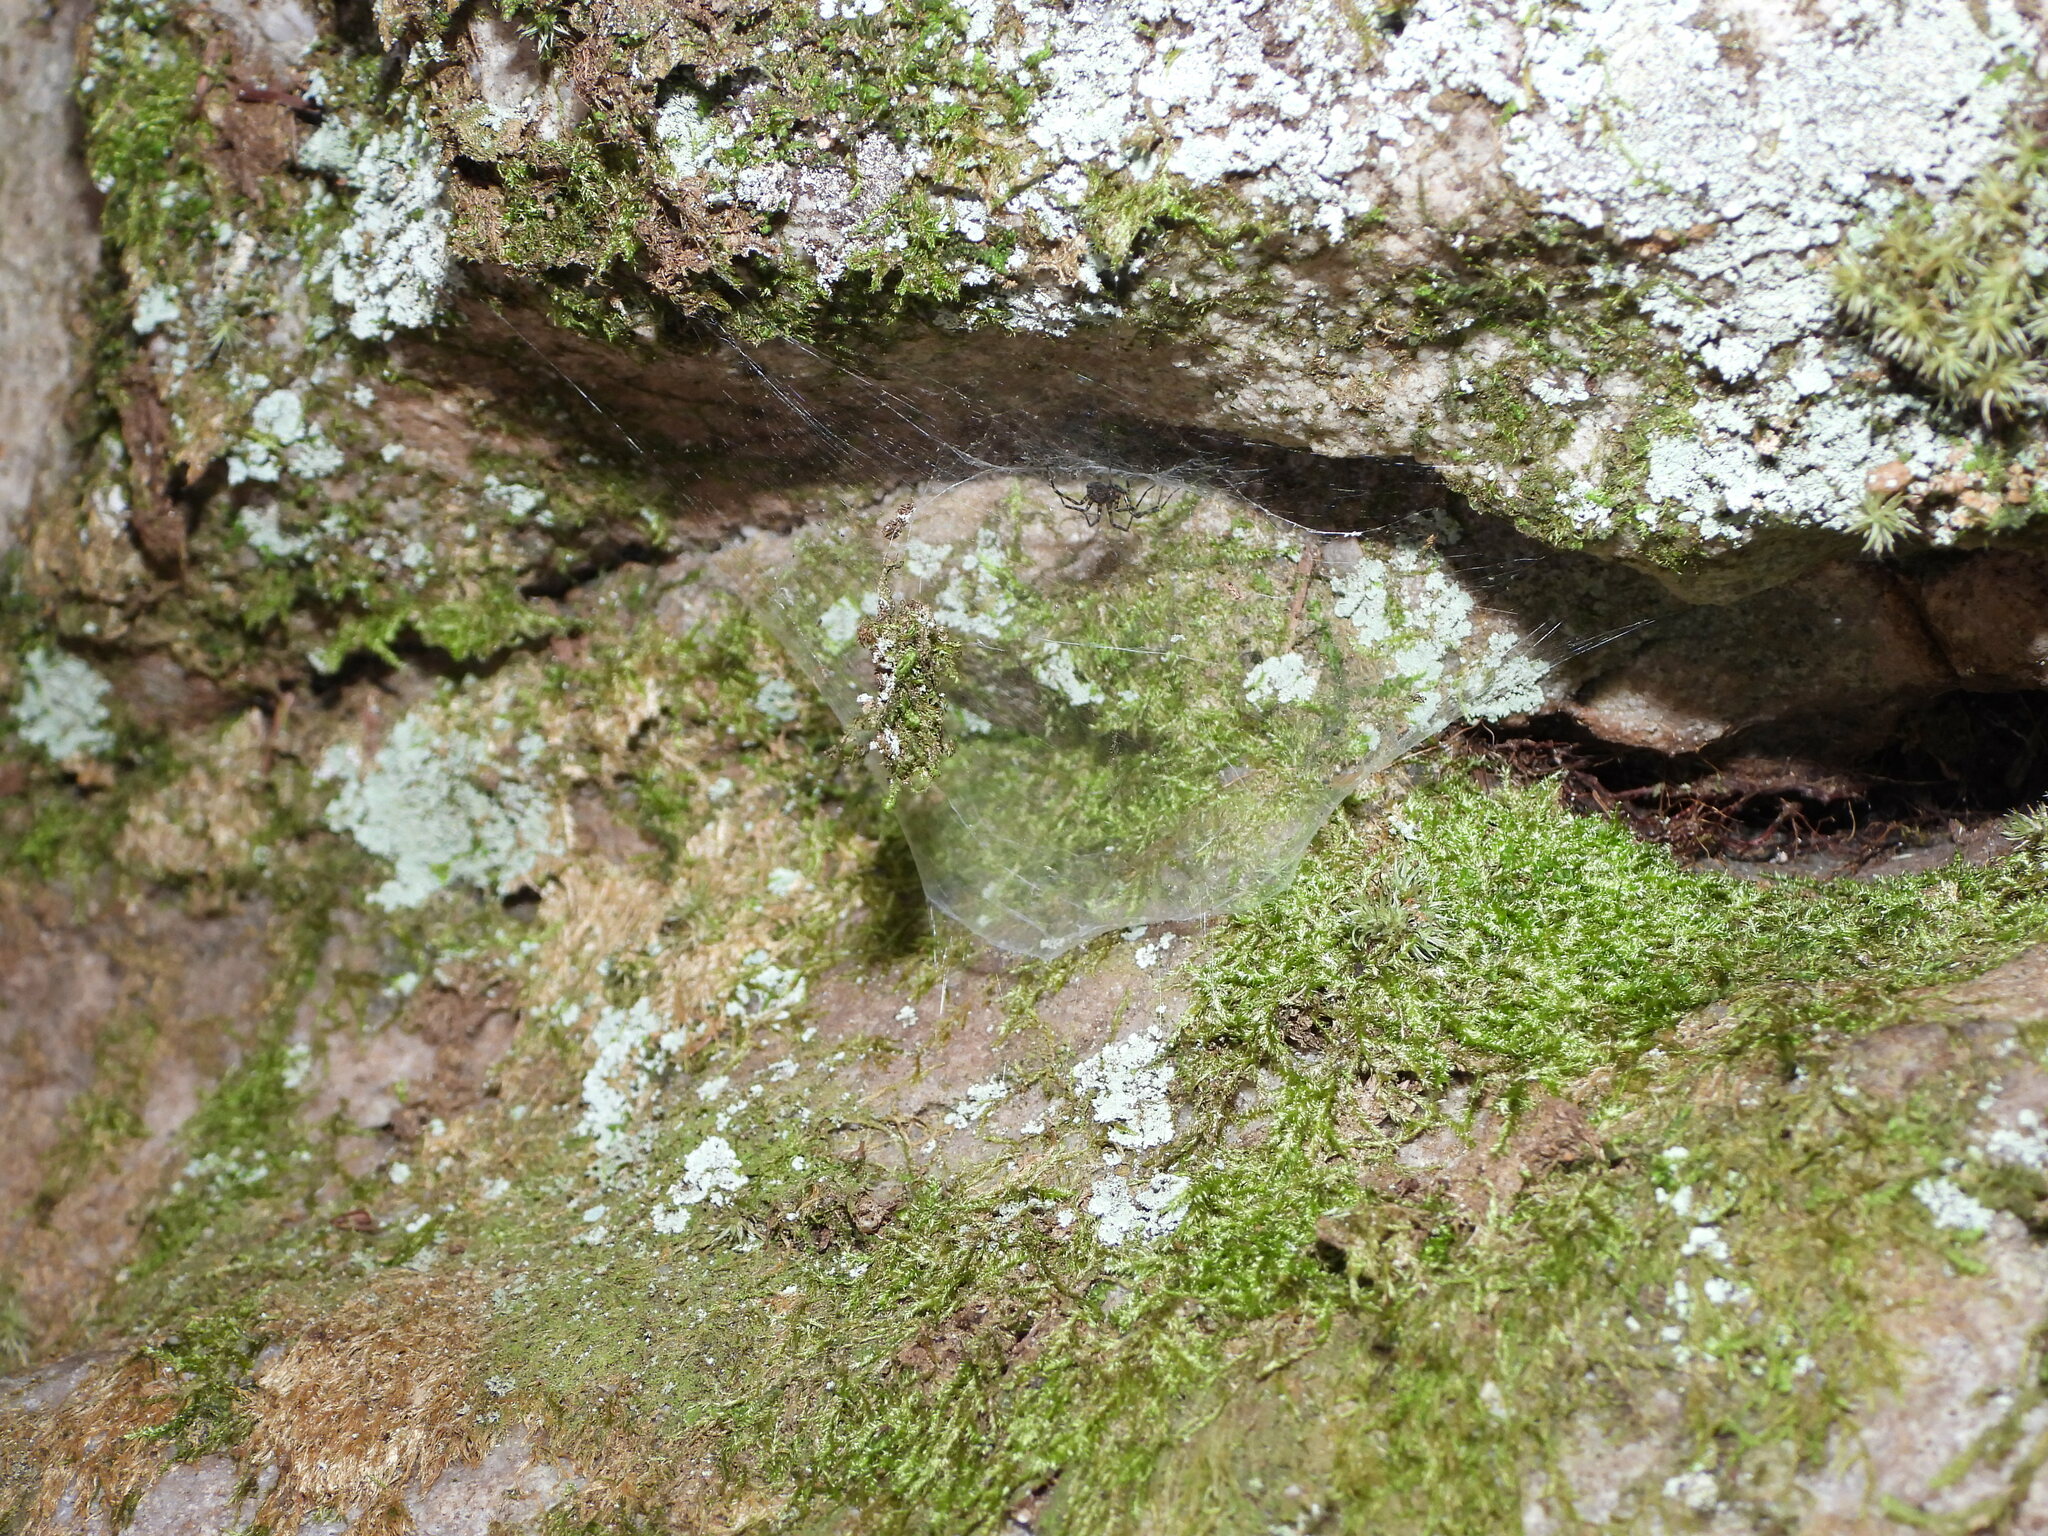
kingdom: Animalia
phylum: Arthropoda
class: Arachnida
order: Araneae
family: Cybaeidae
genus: Calymmaria
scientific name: Calymmaria
